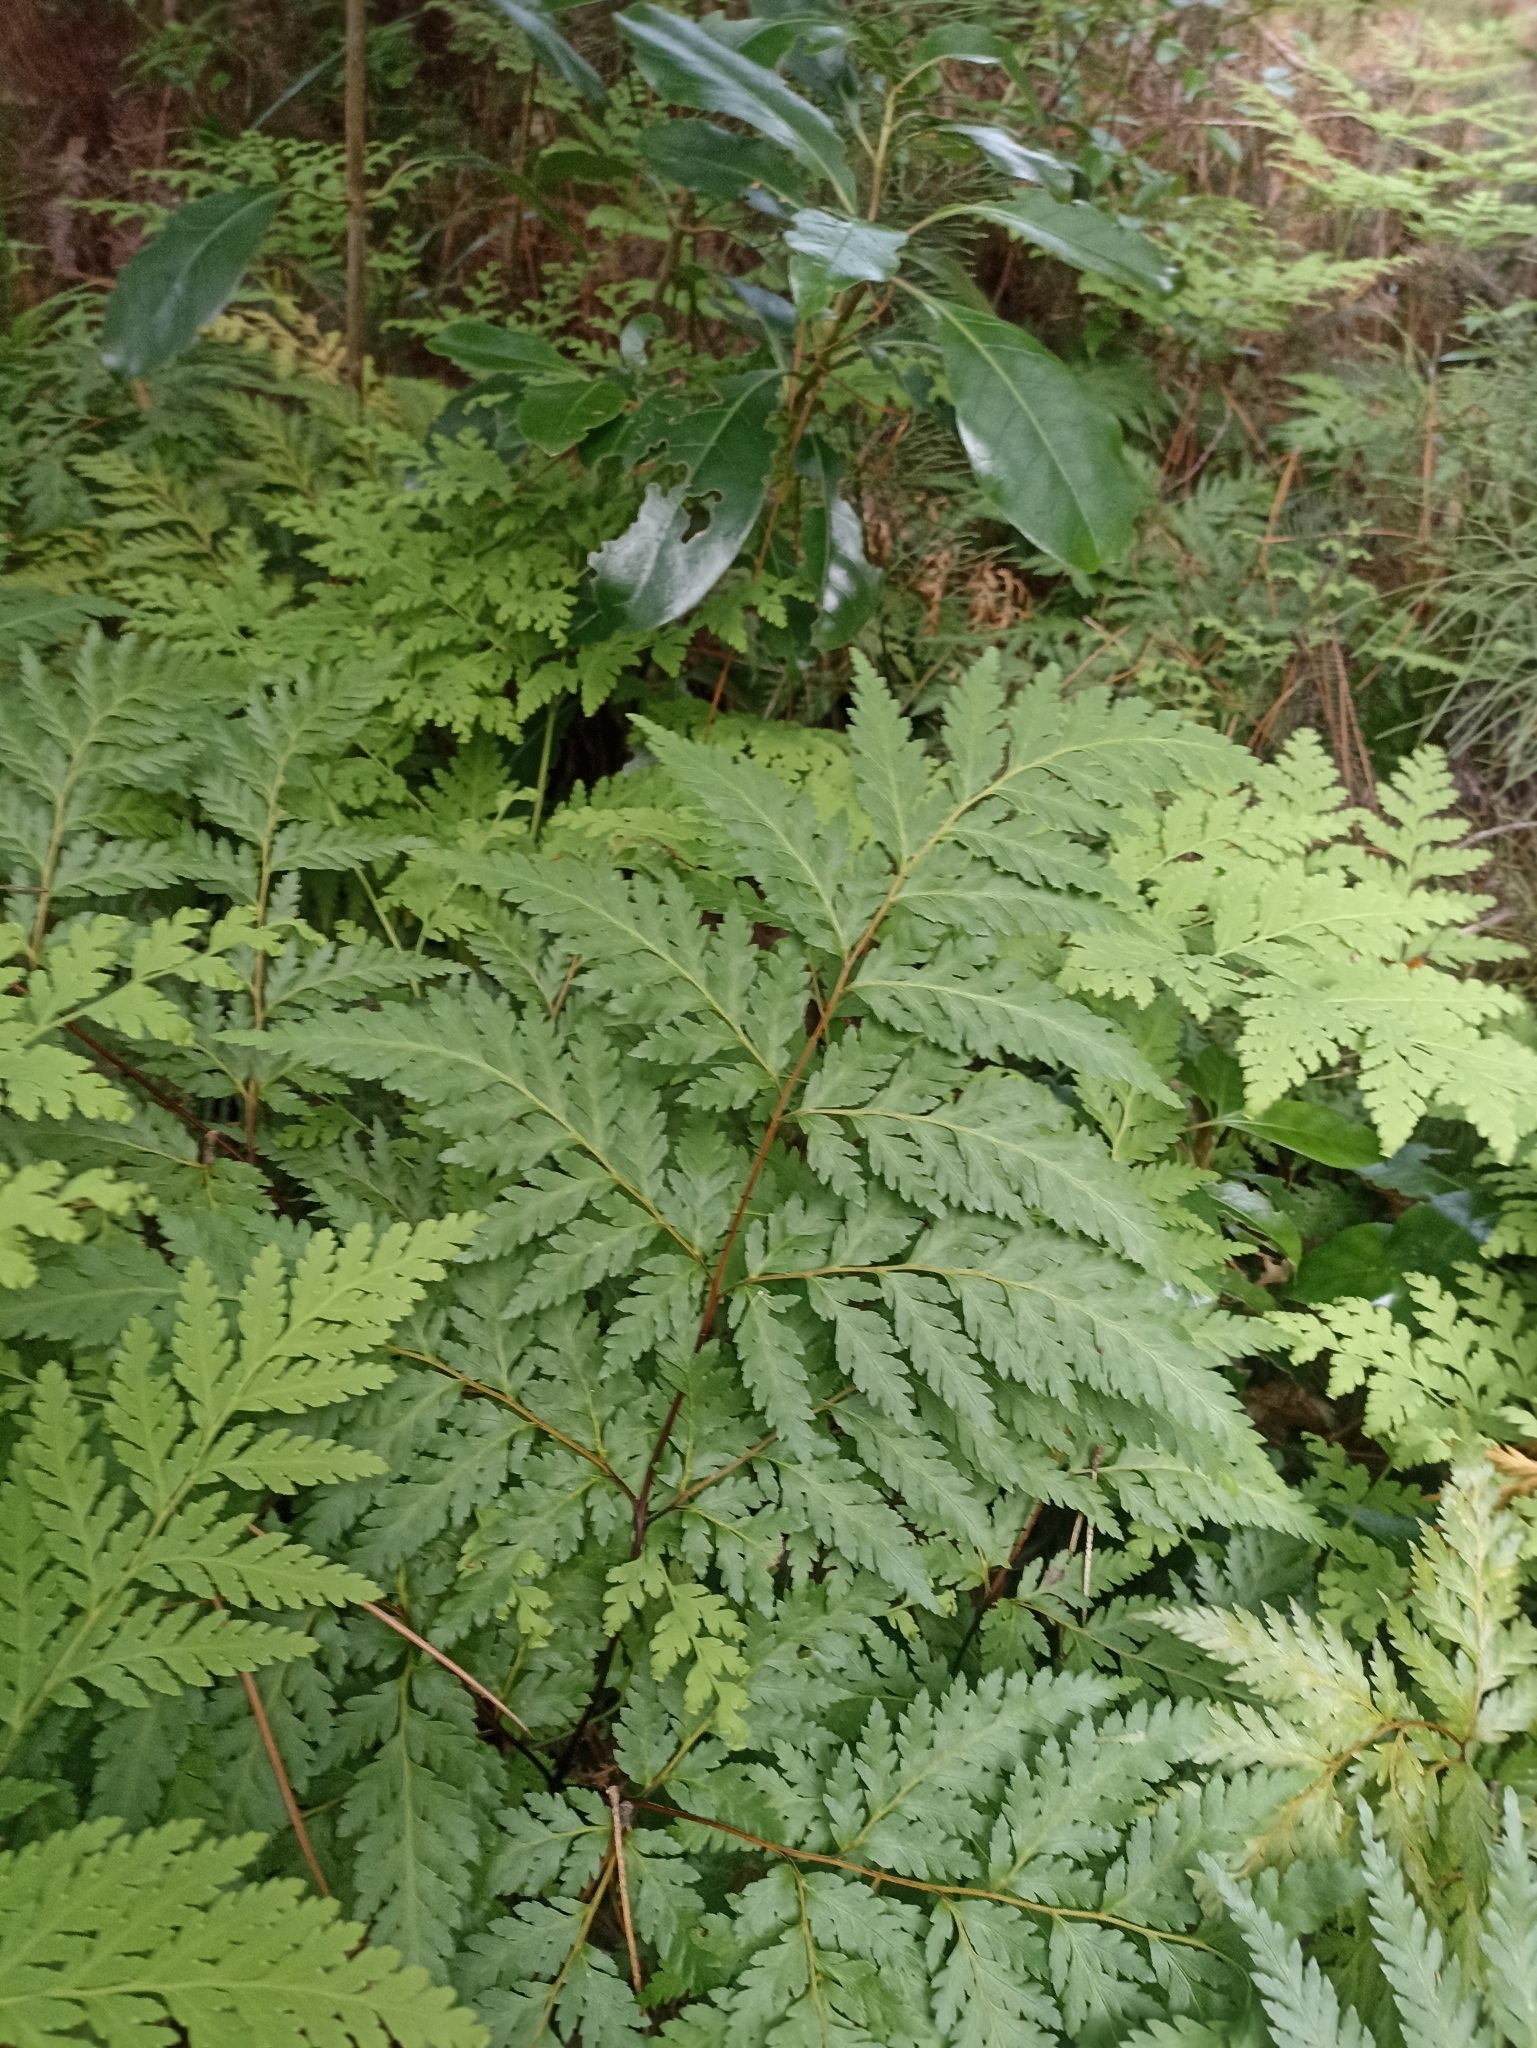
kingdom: Plantae
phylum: Tracheophyta
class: Polypodiopsida
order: Cyatheales
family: Loxsomataceae
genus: Loxsoma
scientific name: Loxsoma cunninghamii
